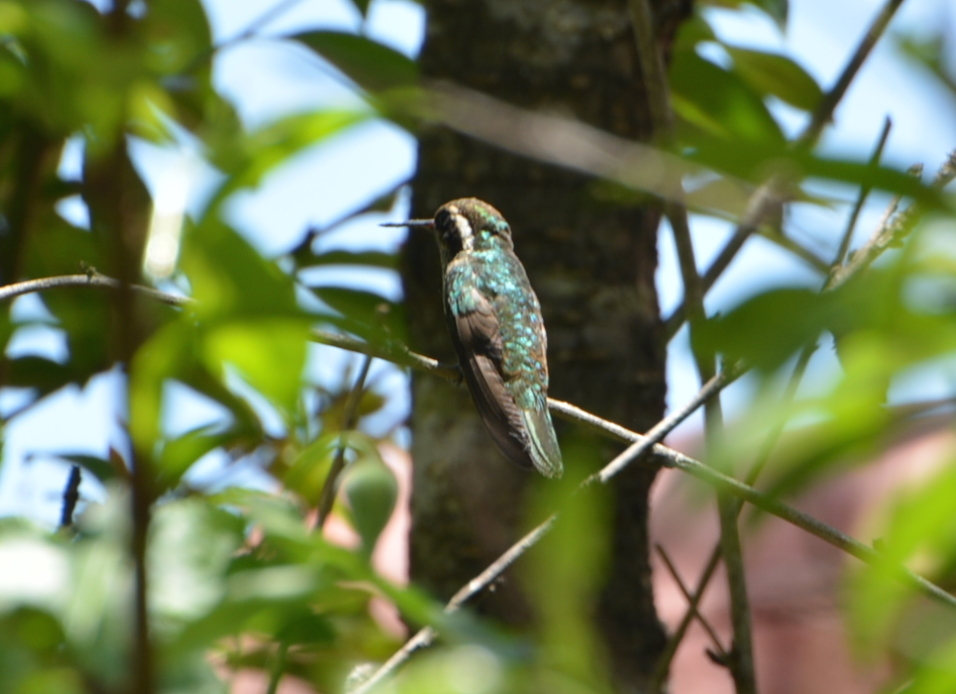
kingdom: Animalia
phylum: Chordata
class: Aves
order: Apodiformes
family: Trochilidae
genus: Basilinna
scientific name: Basilinna leucotis
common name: White-eared hummingbird
